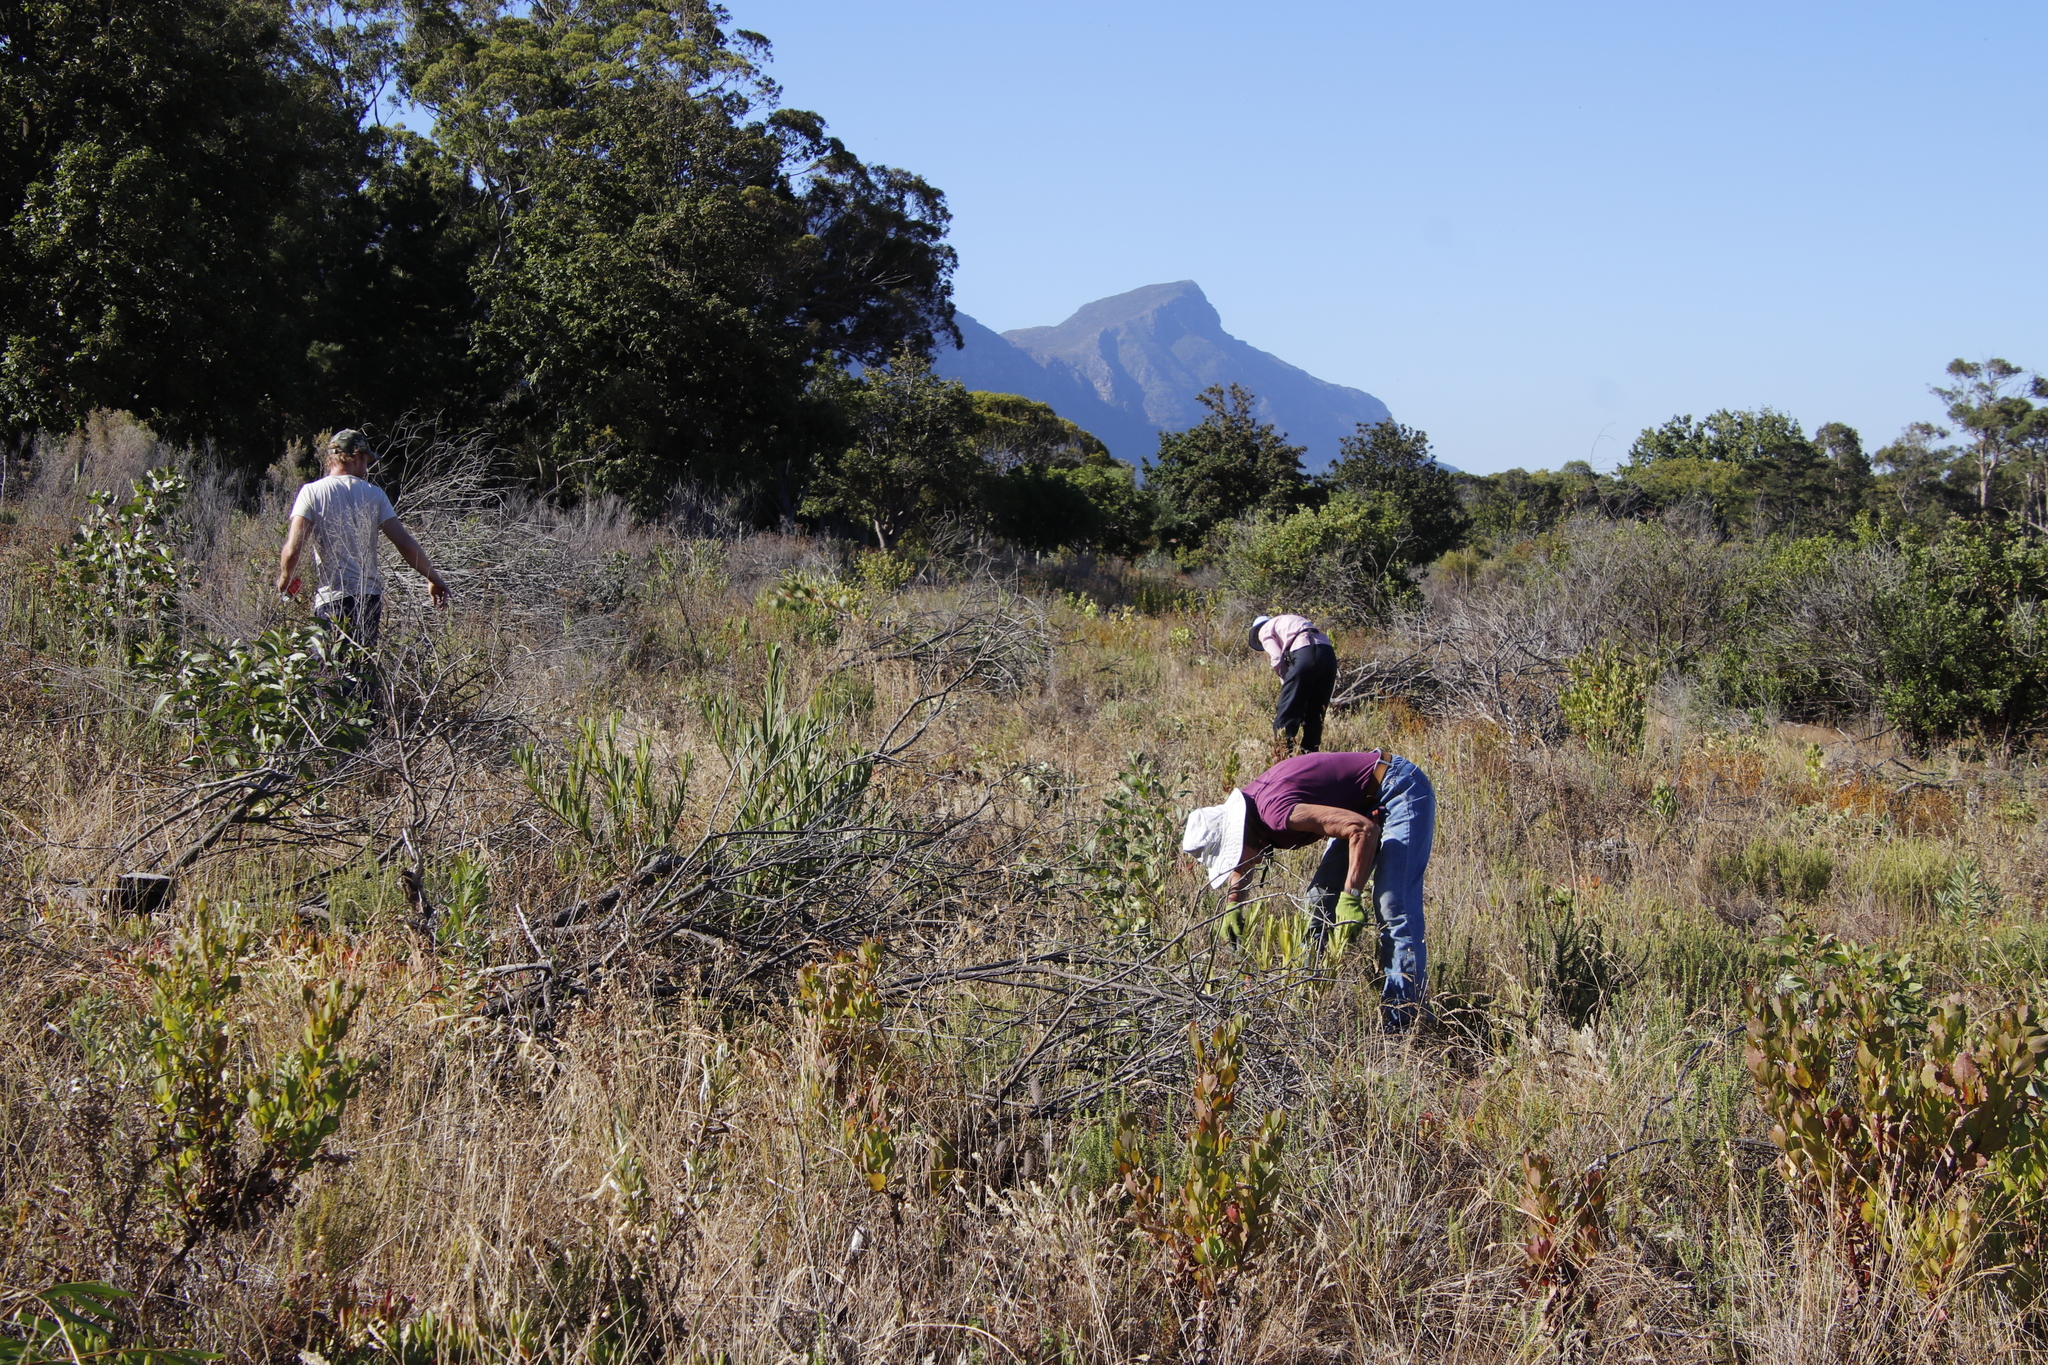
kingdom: Plantae
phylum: Tracheophyta
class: Magnoliopsida
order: Fabales
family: Fabaceae
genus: Acacia
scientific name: Acacia longifolia
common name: Sydney golden wattle
